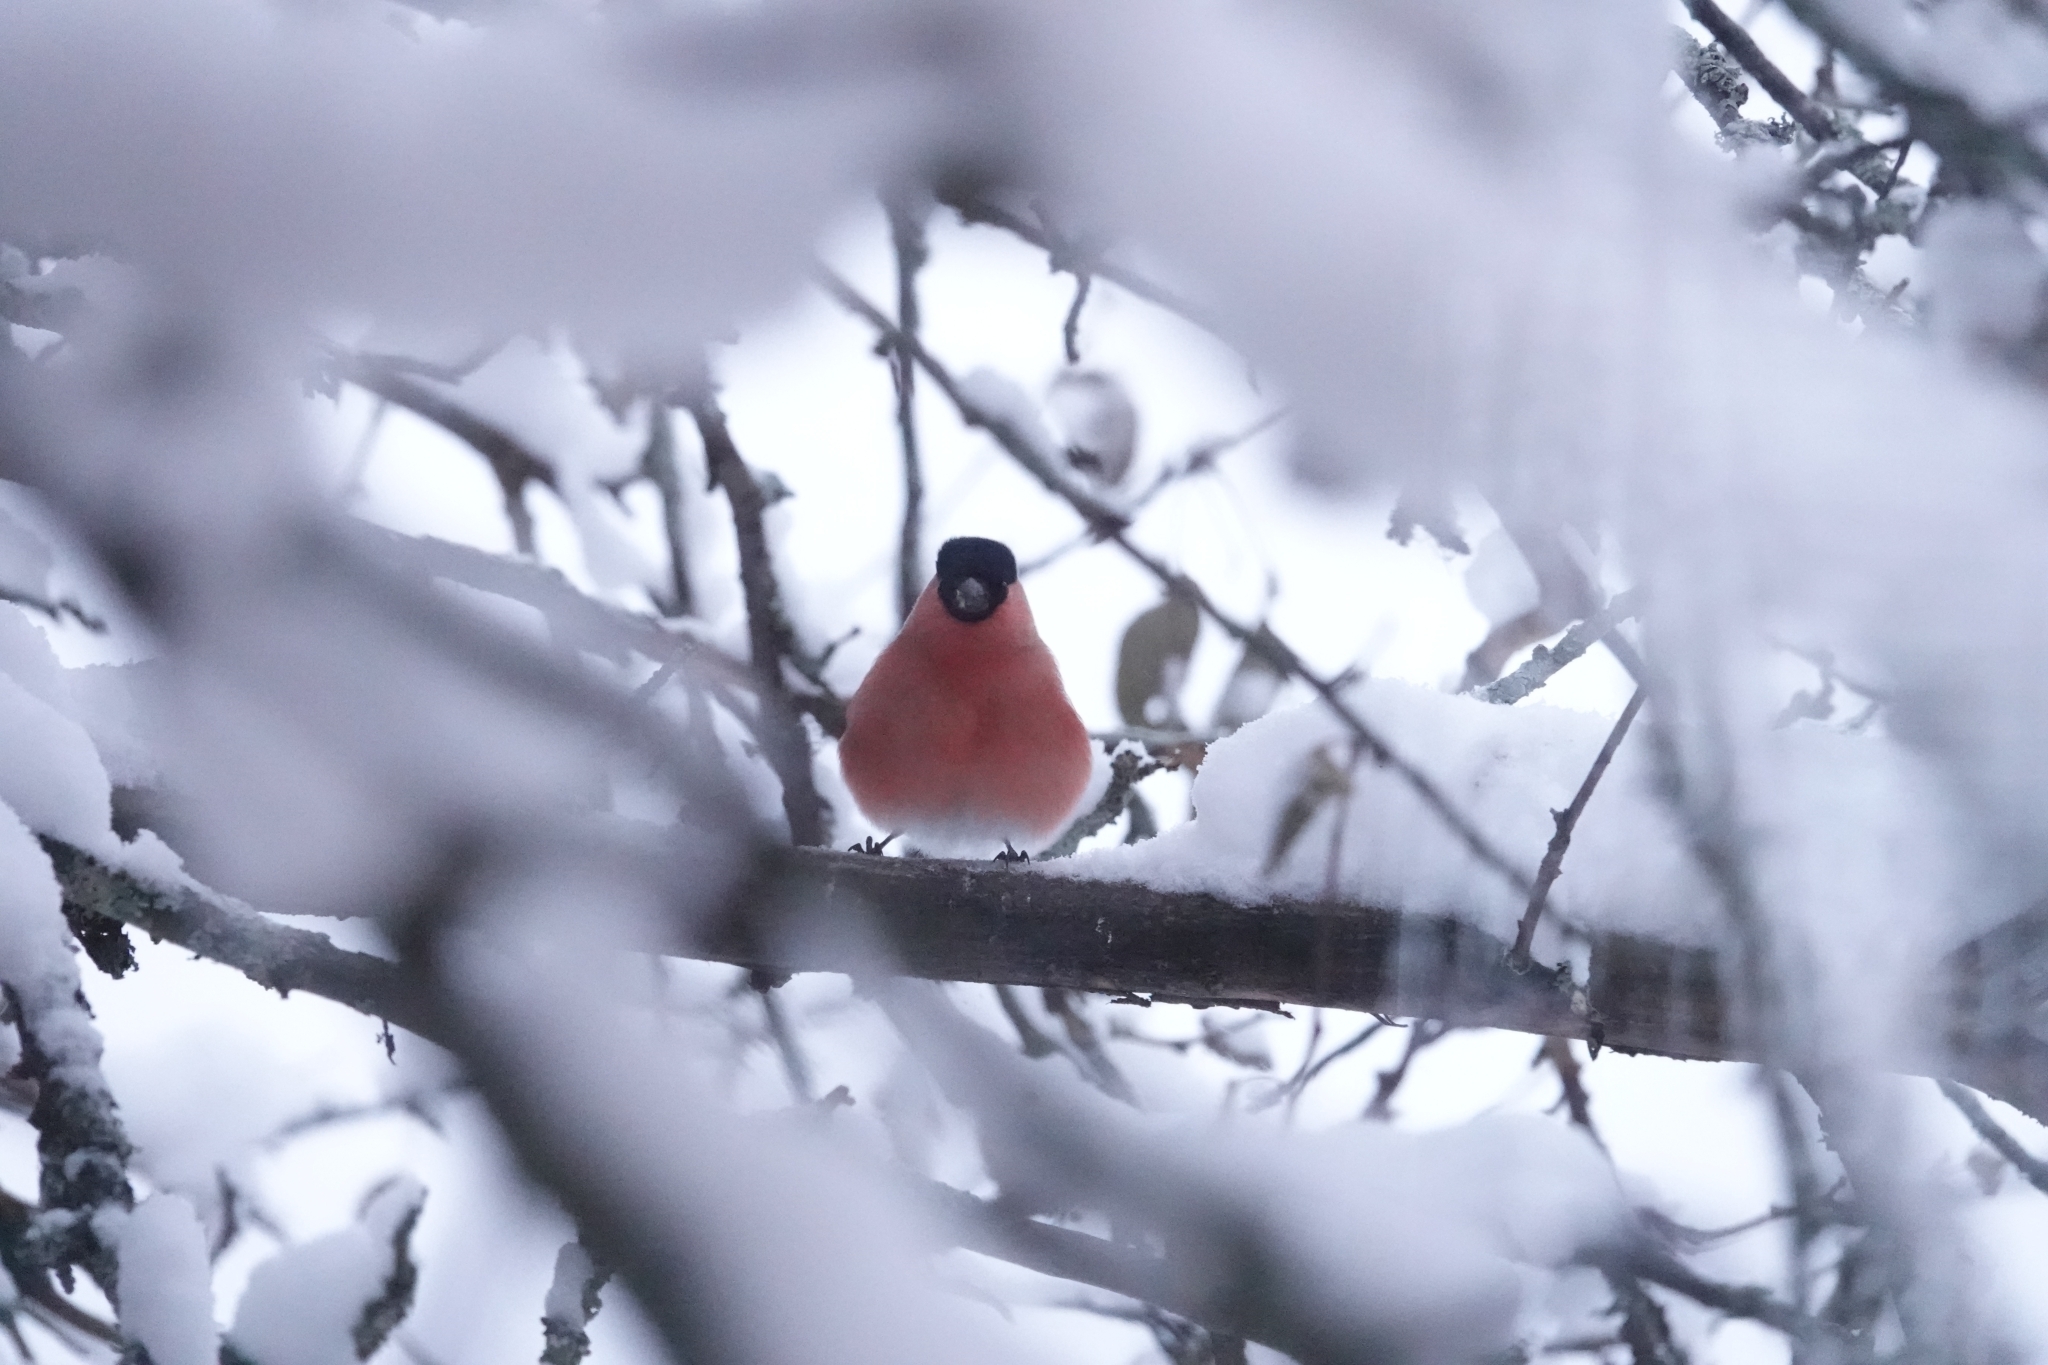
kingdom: Animalia
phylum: Chordata
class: Aves
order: Passeriformes
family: Fringillidae
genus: Pyrrhula
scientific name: Pyrrhula pyrrhula
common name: Eurasian bullfinch
